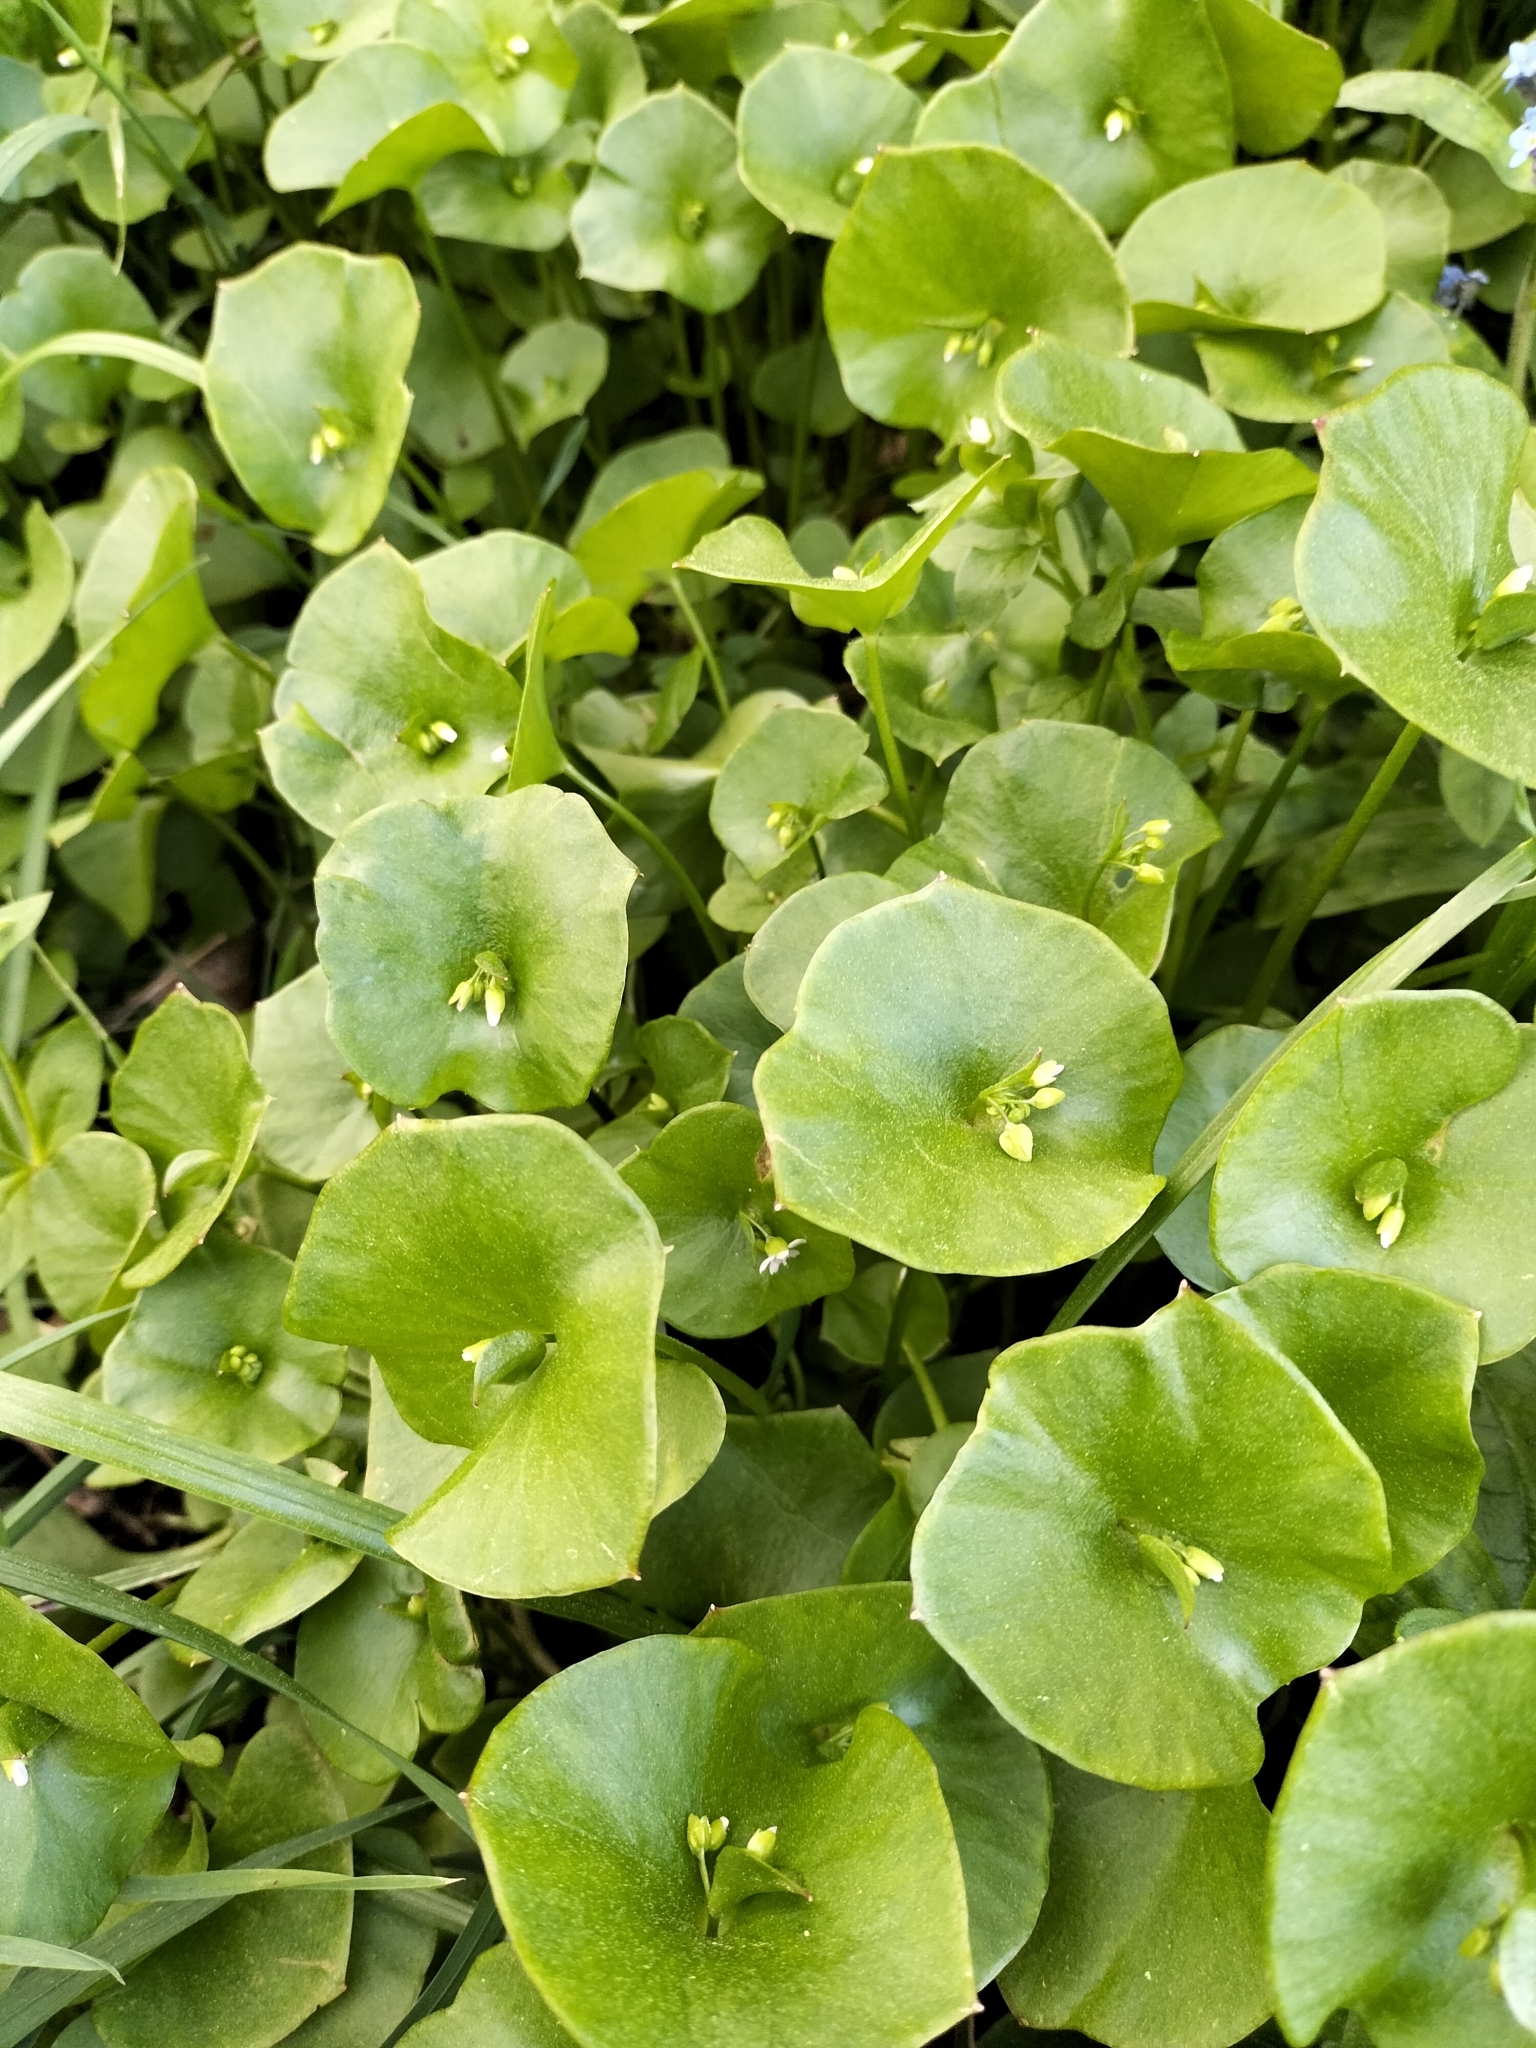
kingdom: Plantae
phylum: Tracheophyta
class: Magnoliopsida
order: Caryophyllales
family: Montiaceae
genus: Claytonia
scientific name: Claytonia perfoliata
